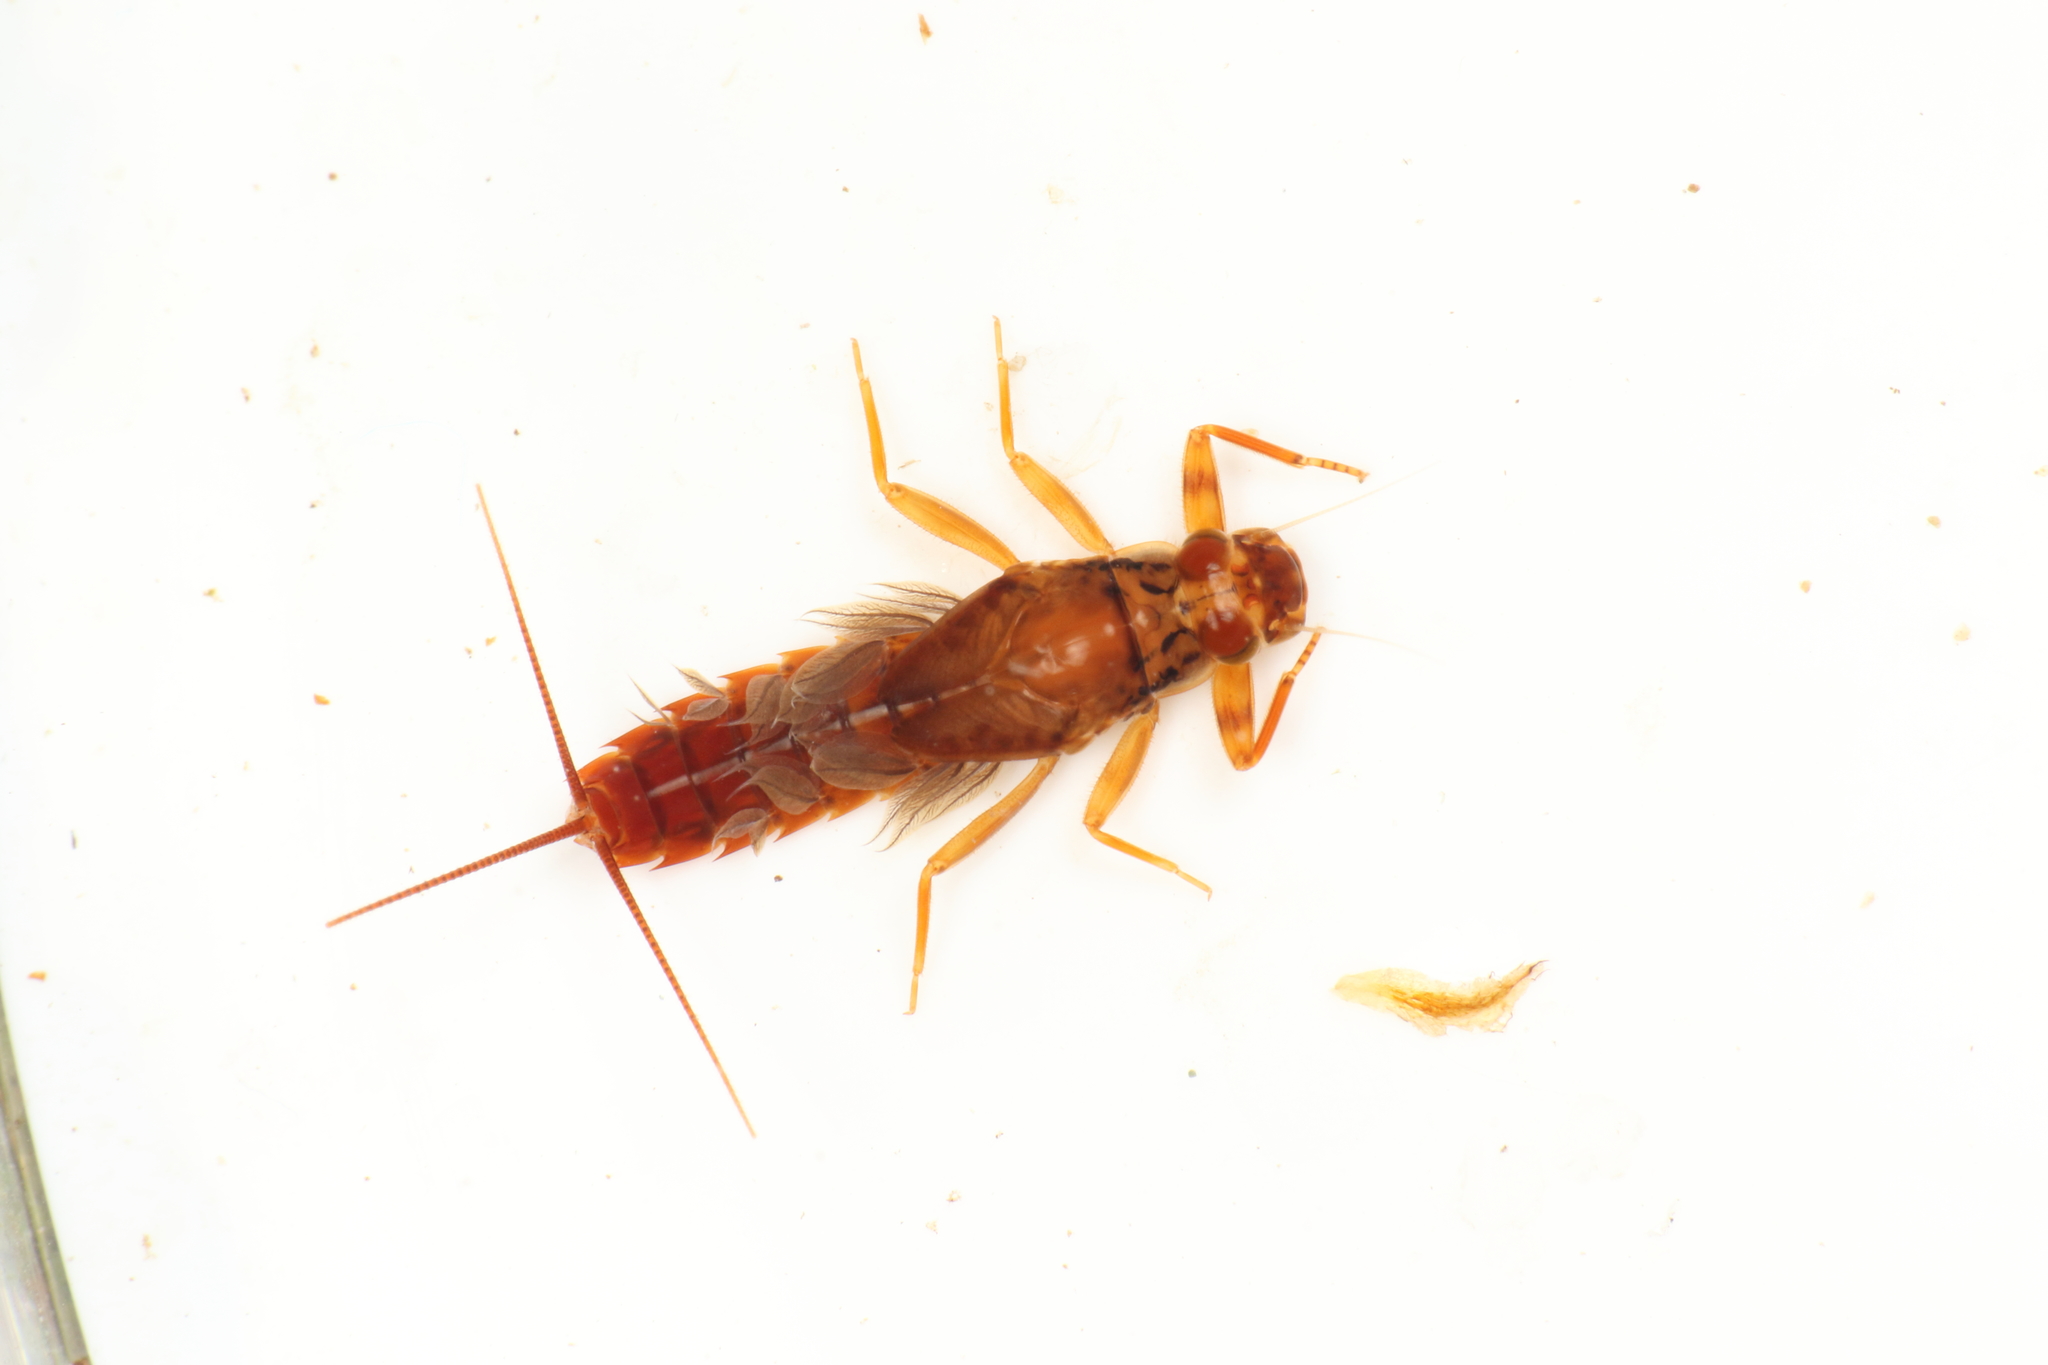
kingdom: Animalia
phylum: Arthropoda
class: Insecta
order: Ephemeroptera
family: Leptophlebiidae
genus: Acanthophlebia
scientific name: Acanthophlebia cruentata
